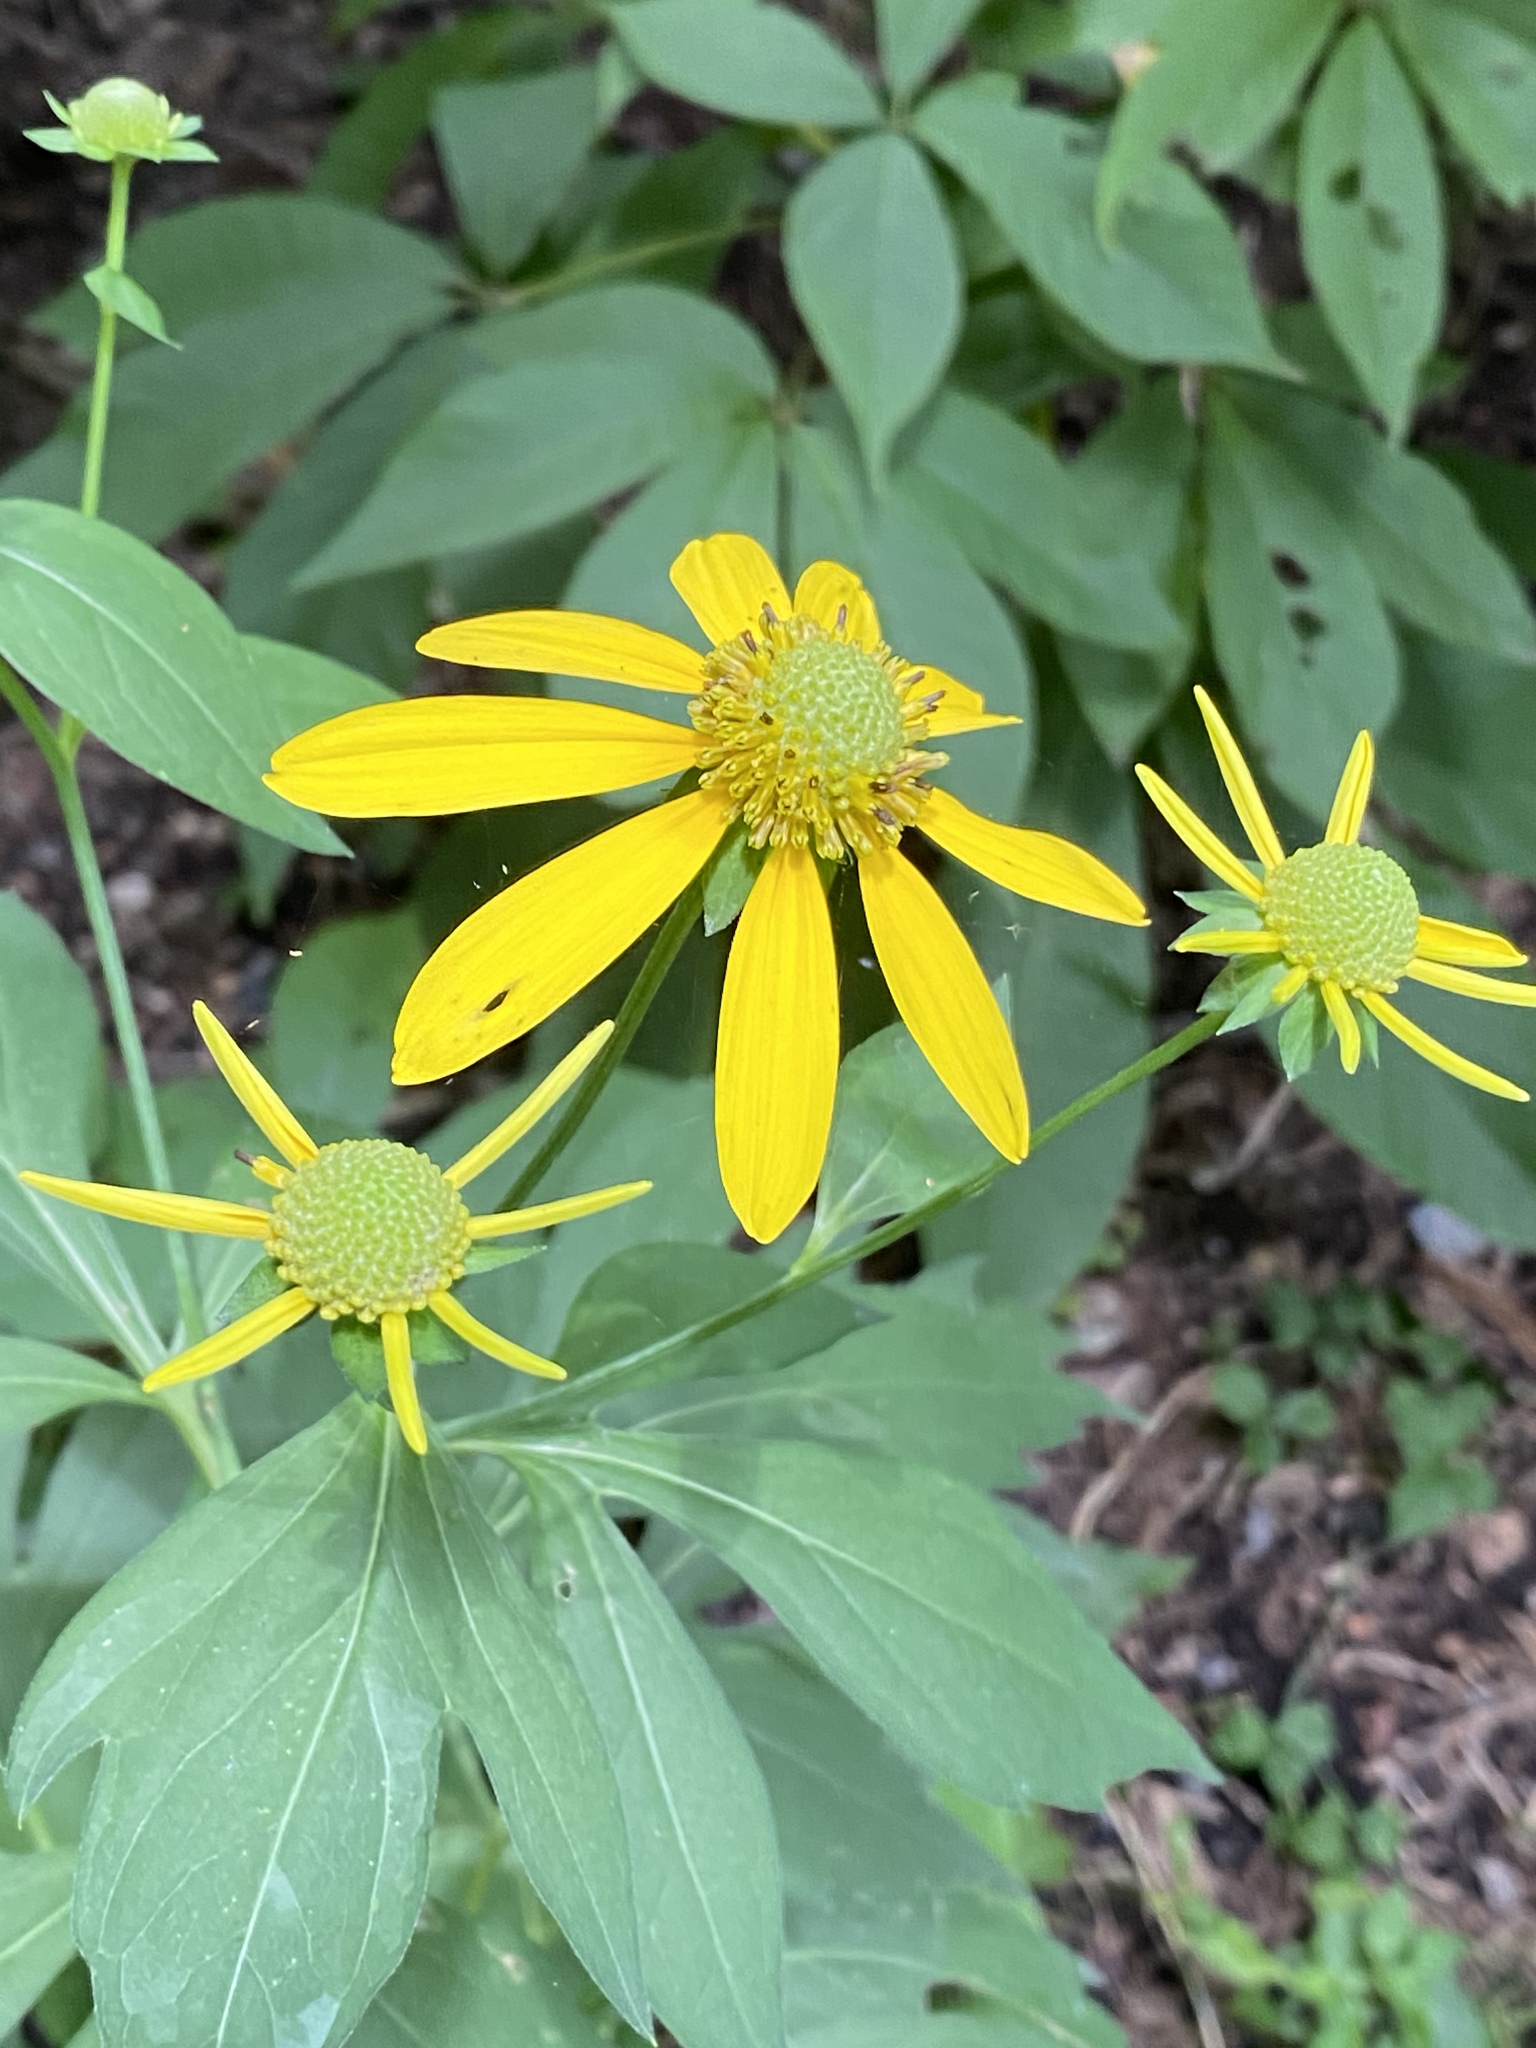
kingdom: Plantae
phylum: Tracheophyta
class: Magnoliopsida
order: Asterales
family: Asteraceae
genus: Rudbeckia
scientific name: Rudbeckia laciniata
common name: Coneflower
